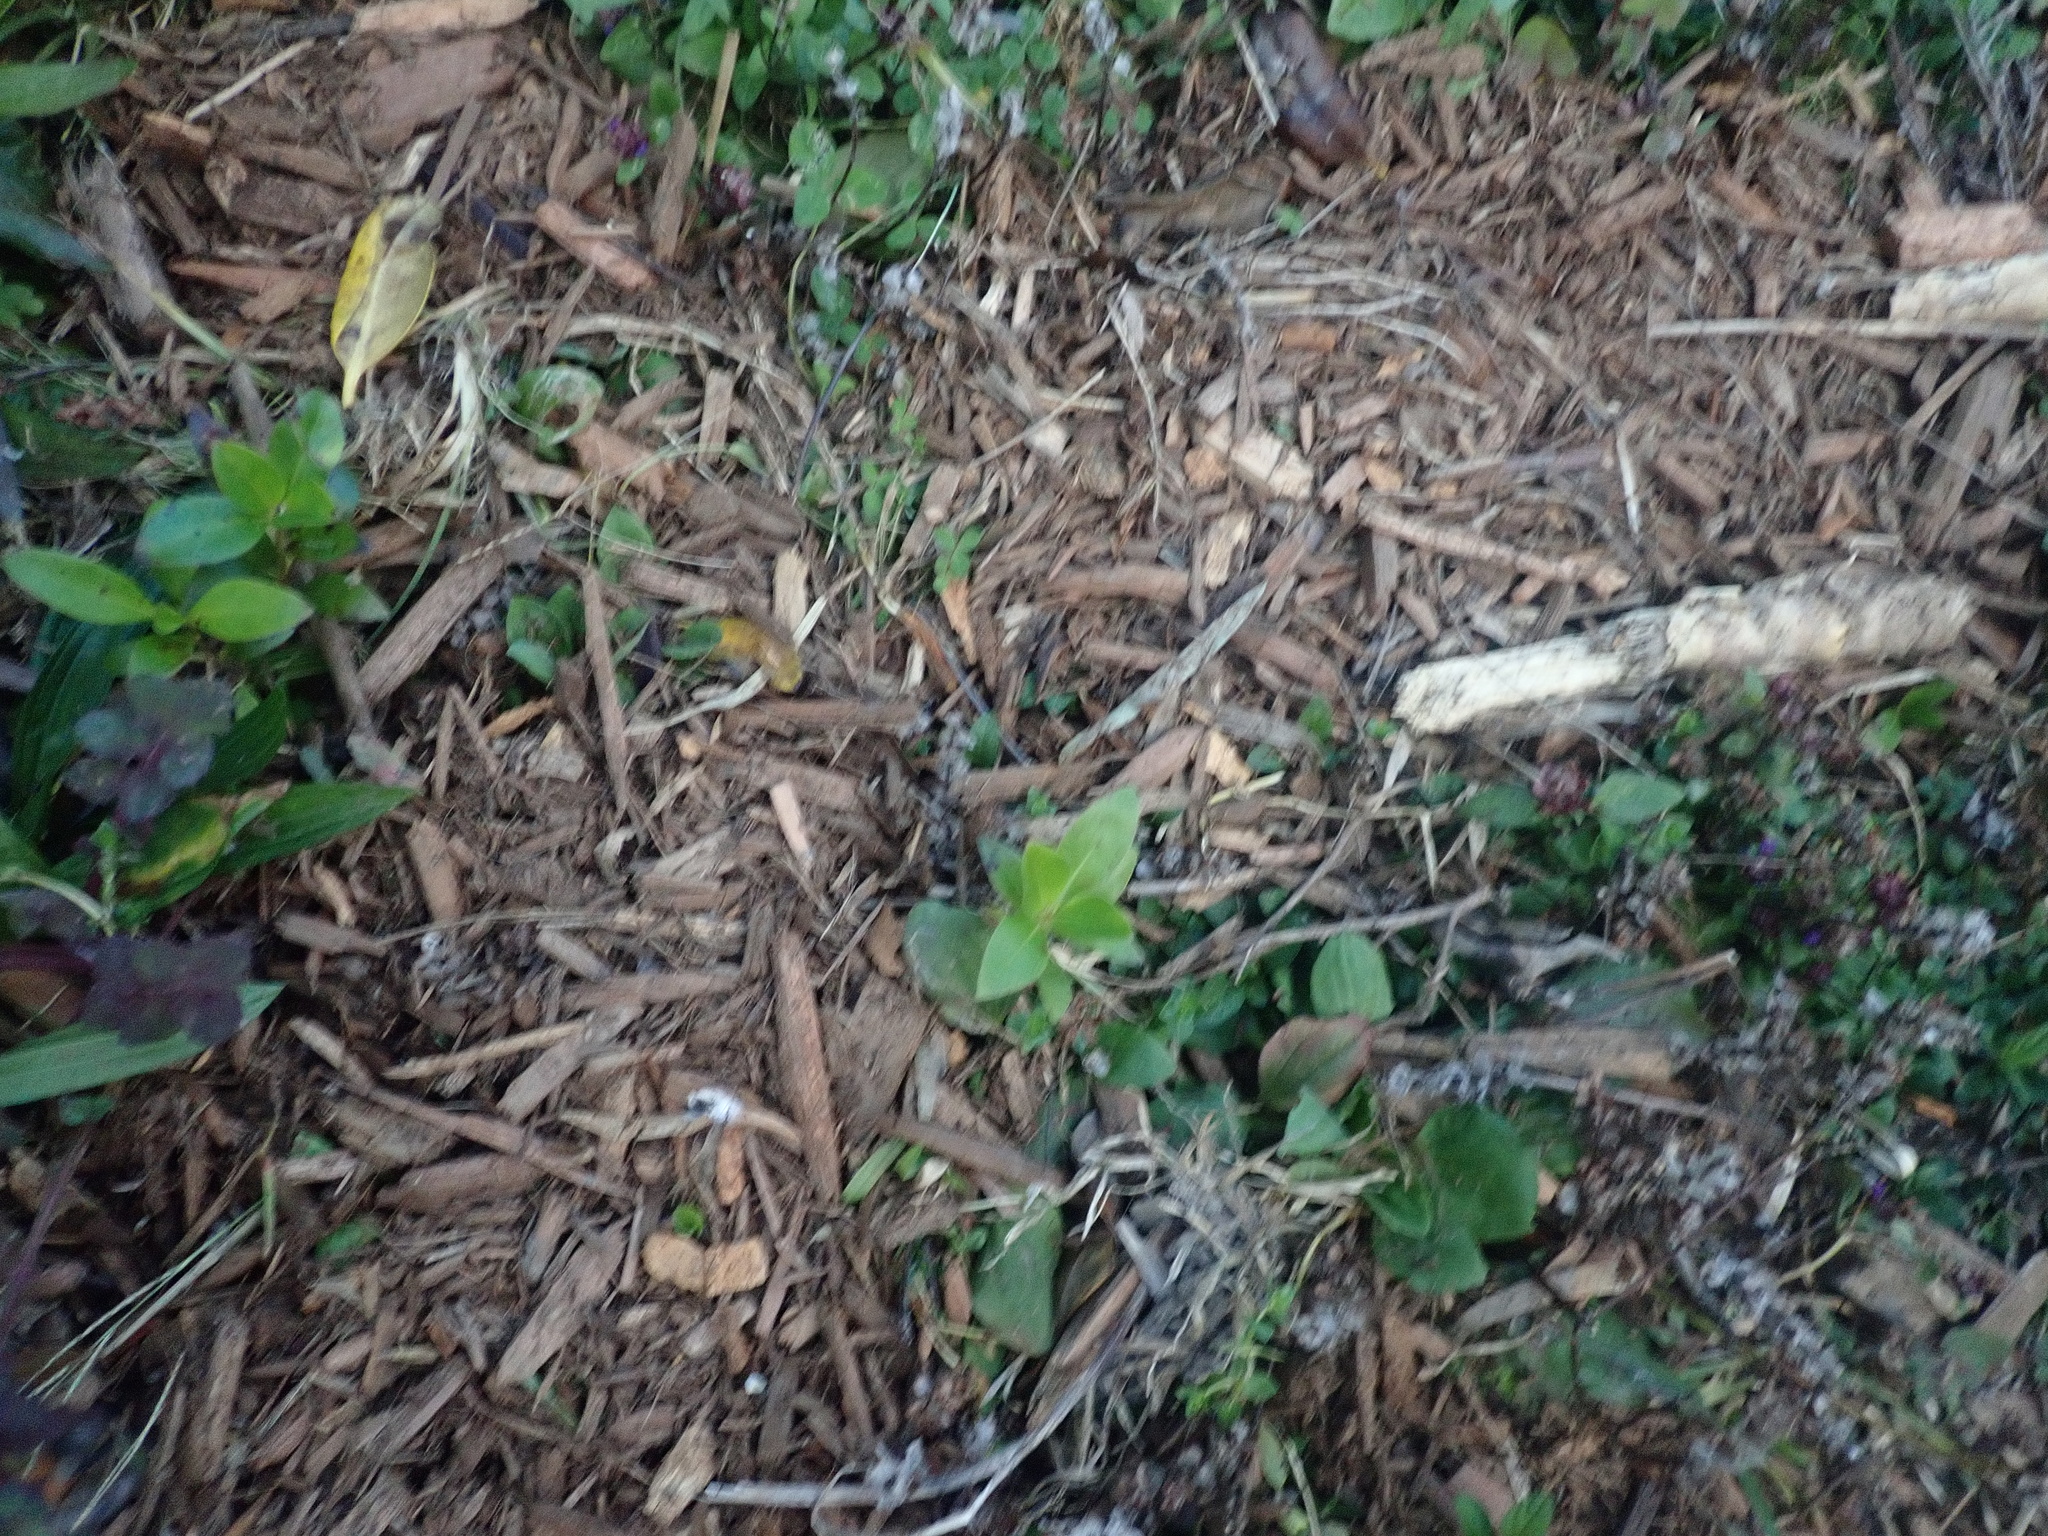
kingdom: Plantae
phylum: Tracheophyta
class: Magnoliopsida
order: Gentianales
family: Rubiaceae
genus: Coprosma
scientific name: Coprosma robusta
